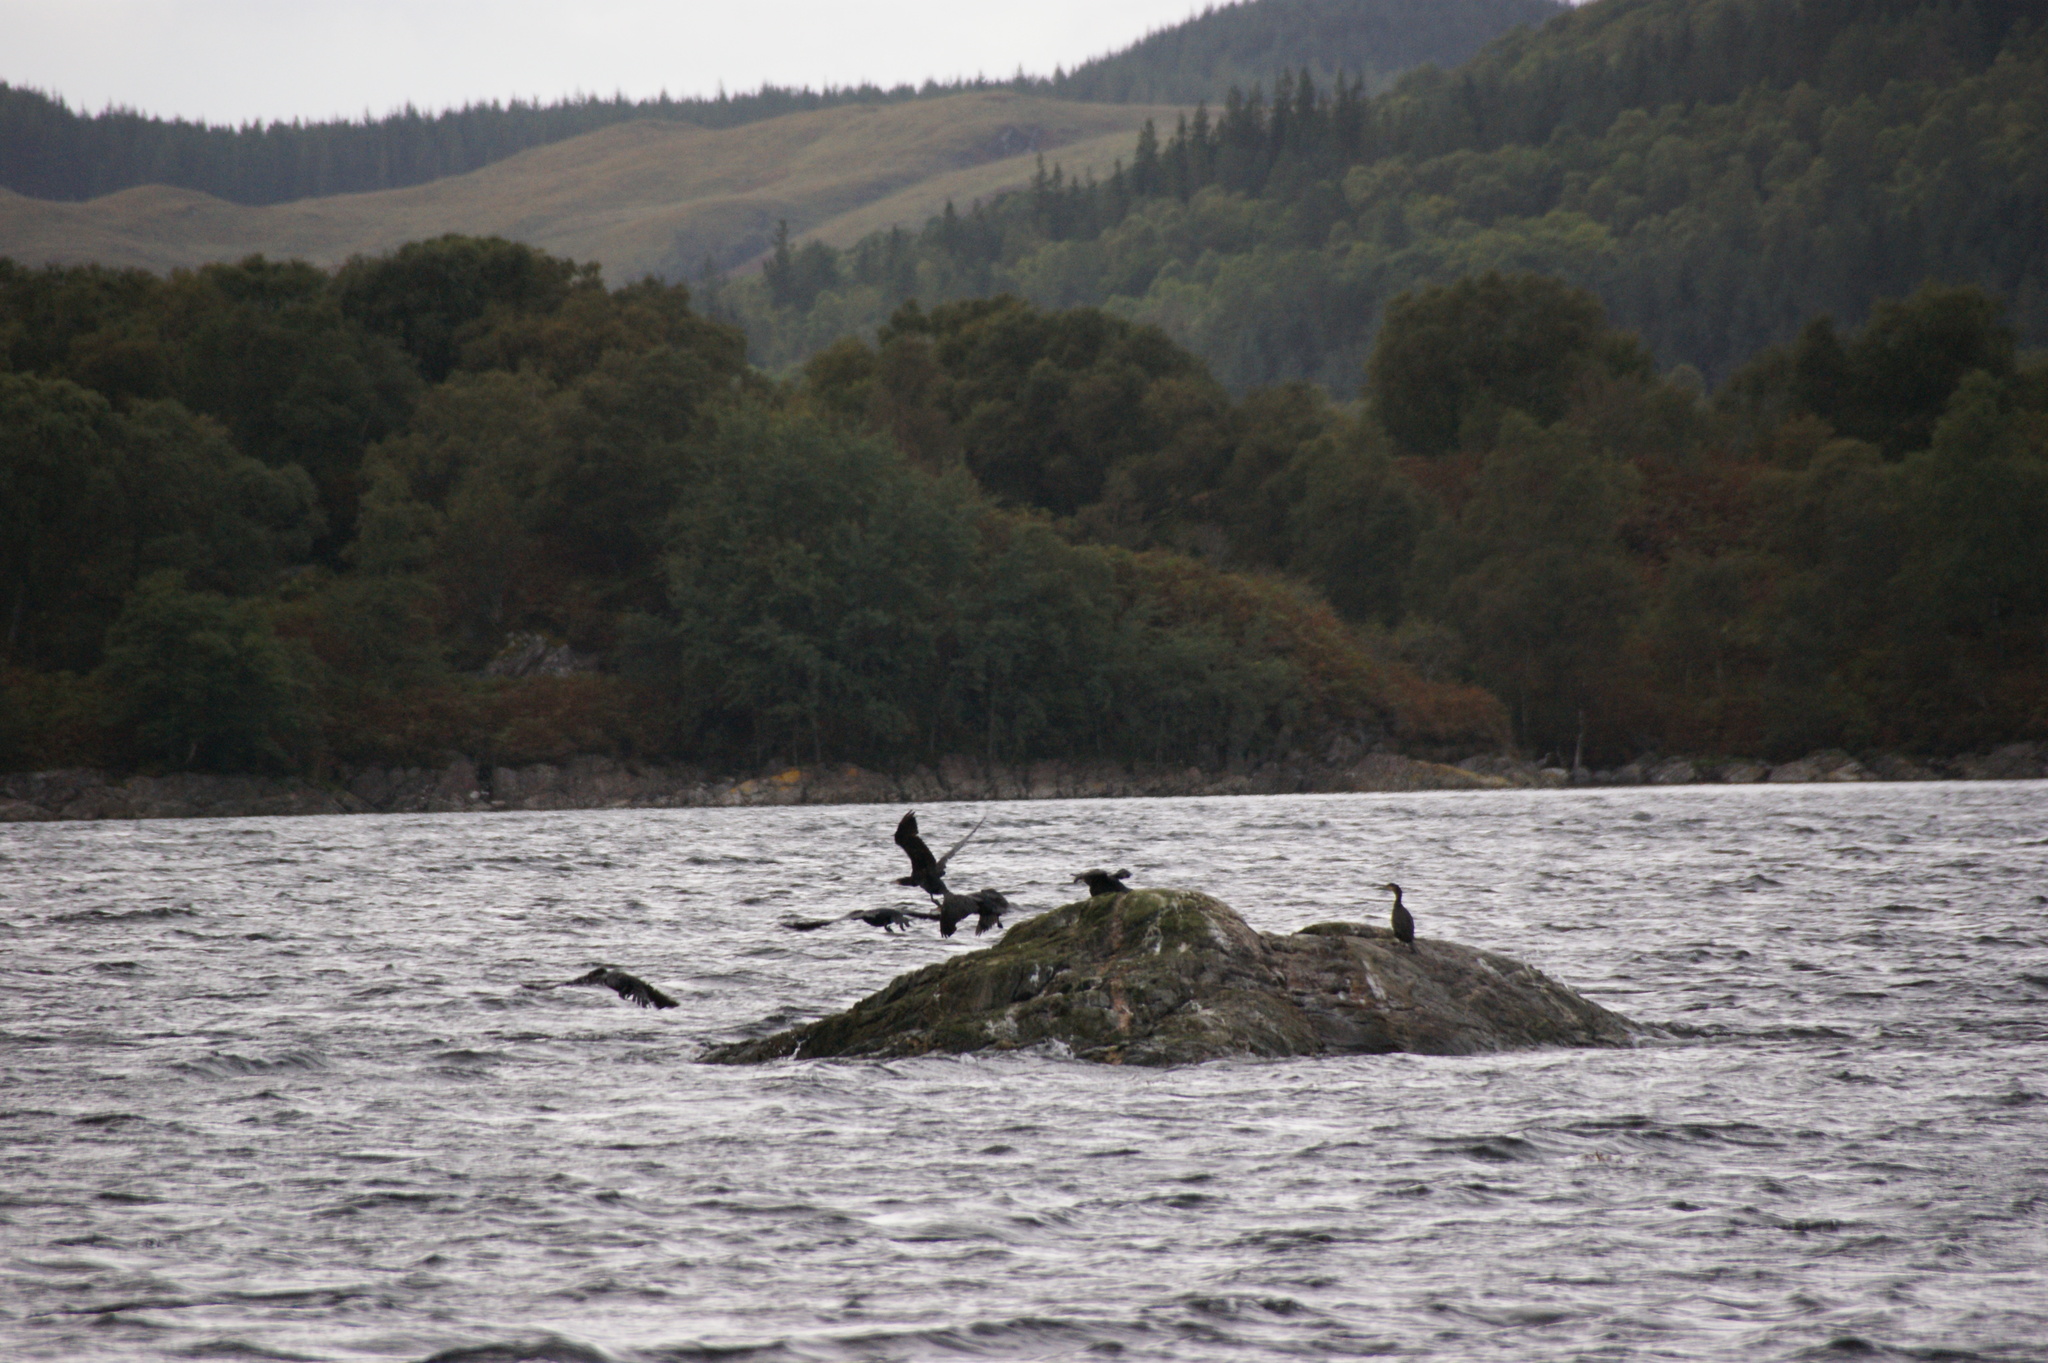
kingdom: Animalia
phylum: Chordata
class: Aves
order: Suliformes
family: Phalacrocoracidae
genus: Phalacrocorax
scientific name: Phalacrocorax carbo
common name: Great cormorant
